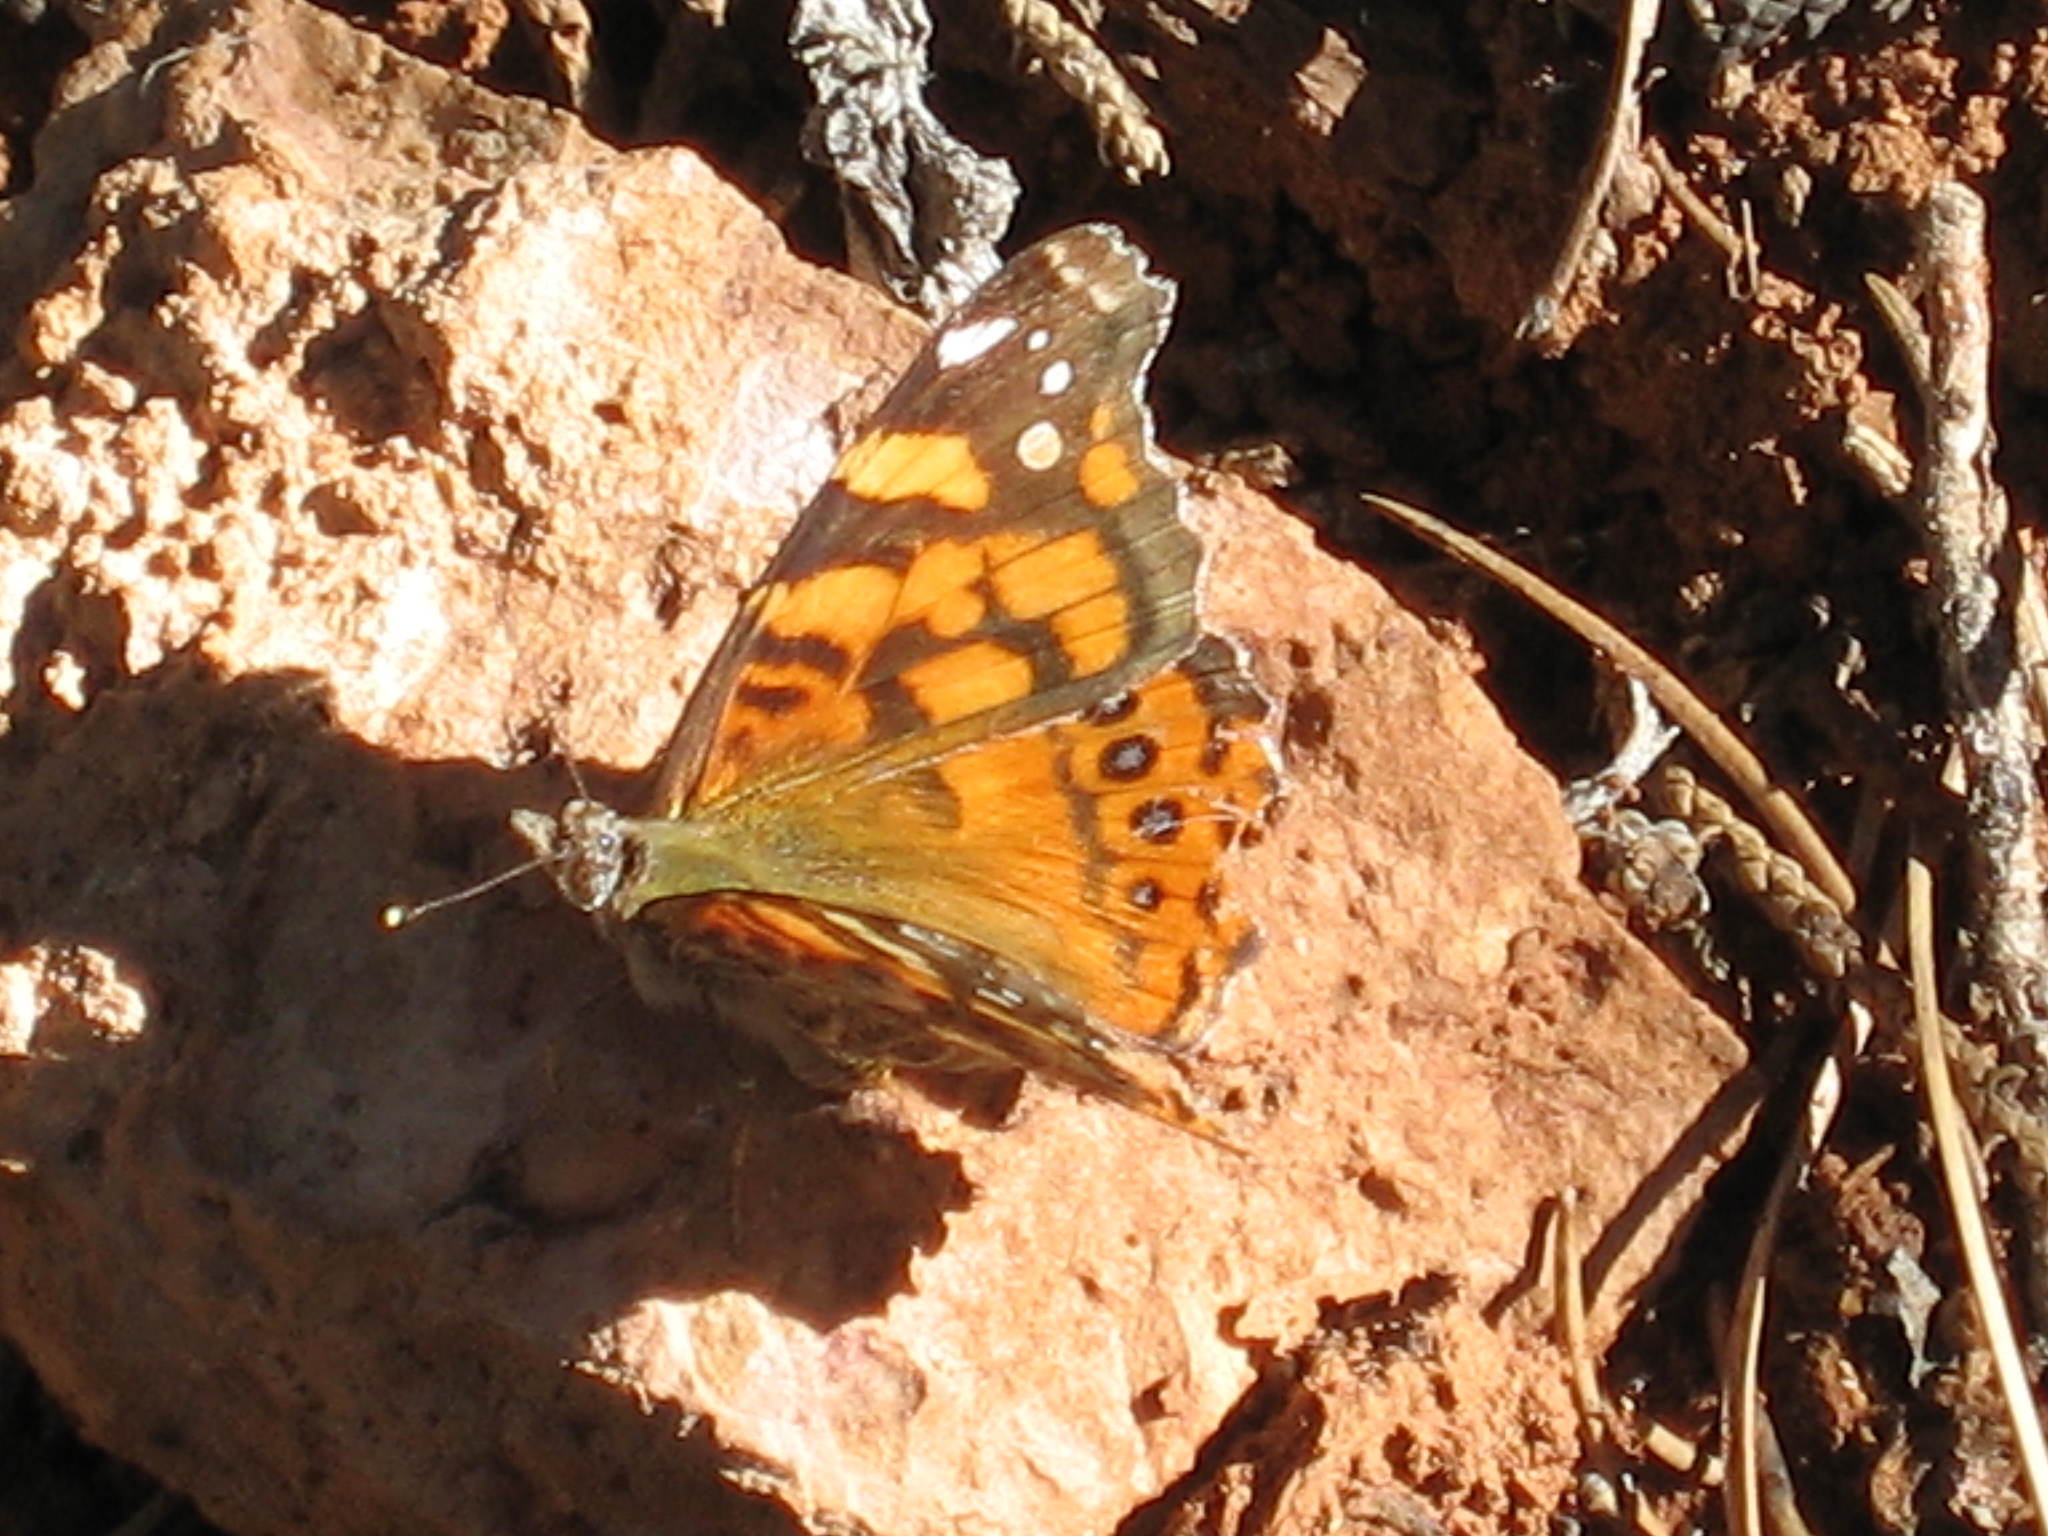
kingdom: Animalia
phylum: Arthropoda
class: Insecta
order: Lepidoptera
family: Nymphalidae
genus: Vanessa
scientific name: Vanessa annabella
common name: West coast lady
